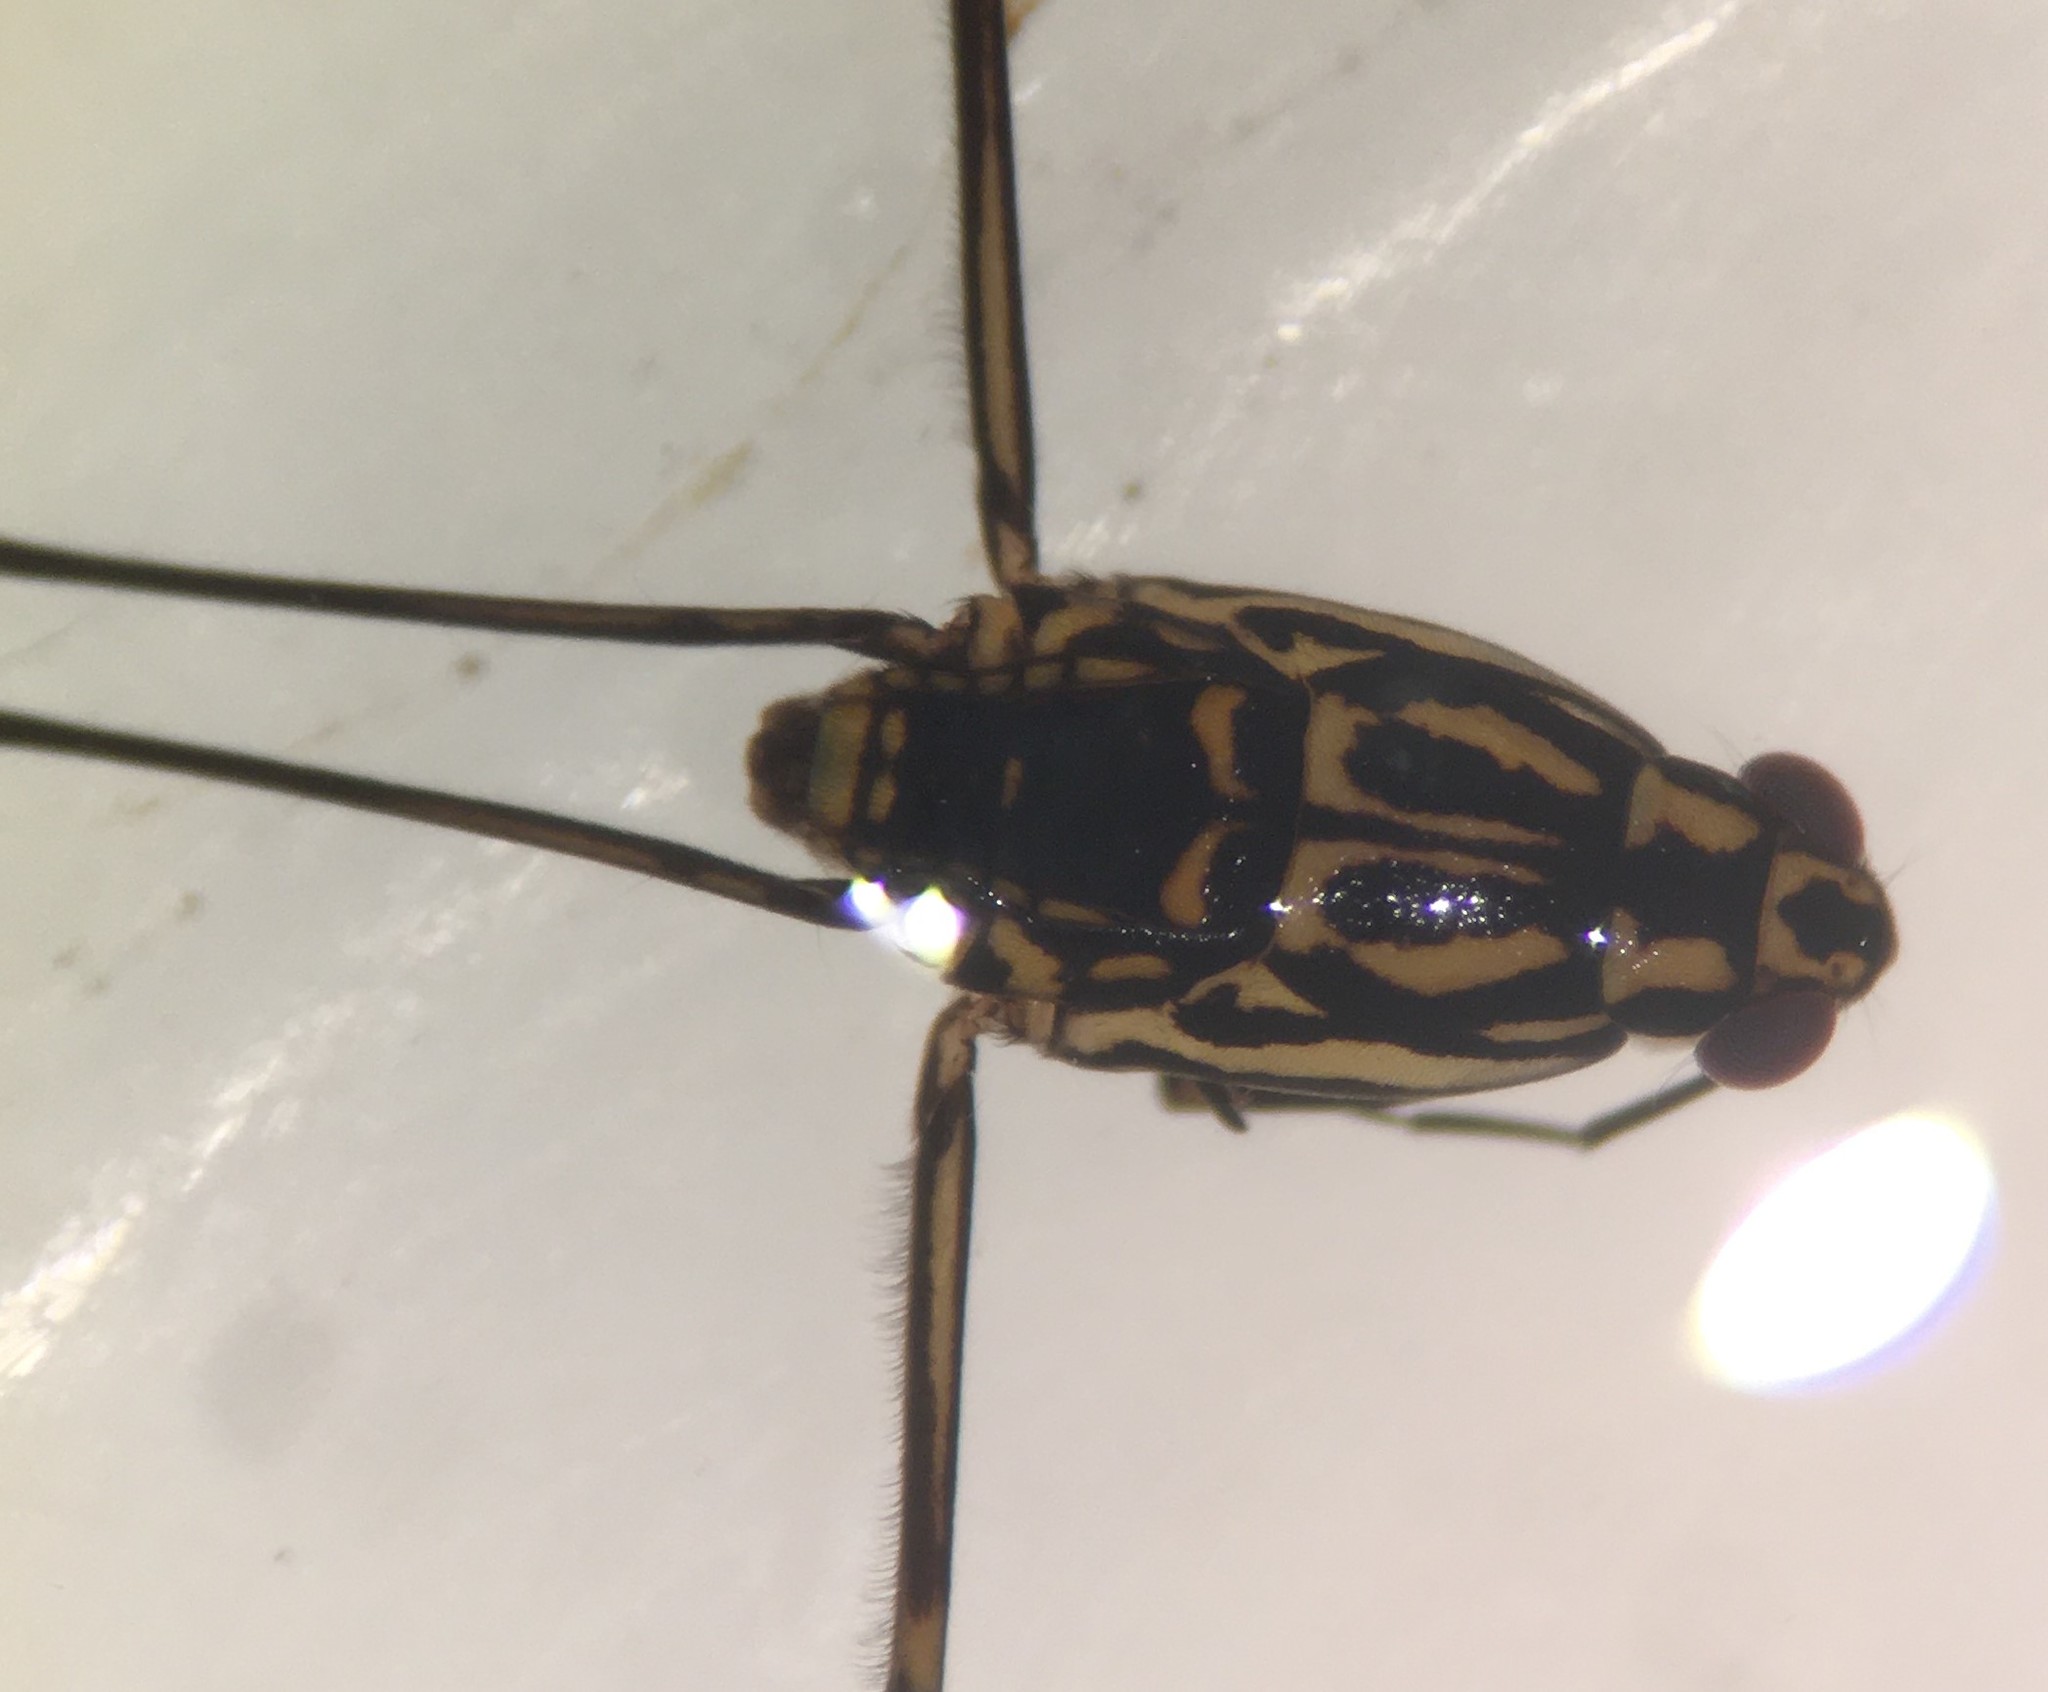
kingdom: Animalia
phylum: Arthropoda
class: Insecta
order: Hemiptera
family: Gerridae
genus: Trepobates
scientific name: Trepobates inermis
